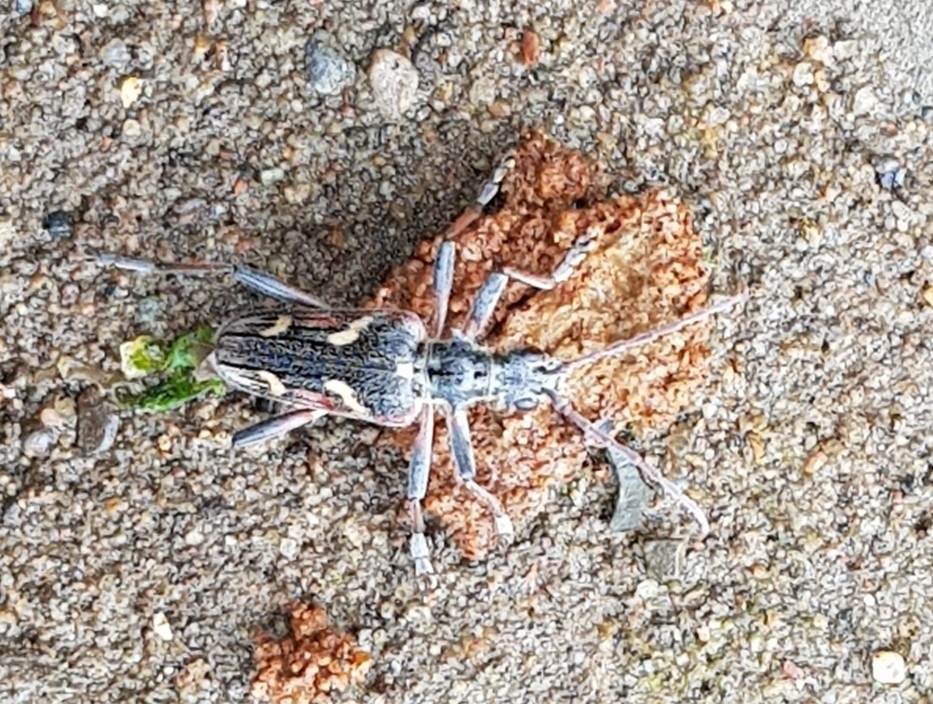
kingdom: Animalia
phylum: Arthropoda
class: Insecta
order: Coleoptera
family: Cerambycidae
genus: Rhagium
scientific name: Rhagium bifasciatum
